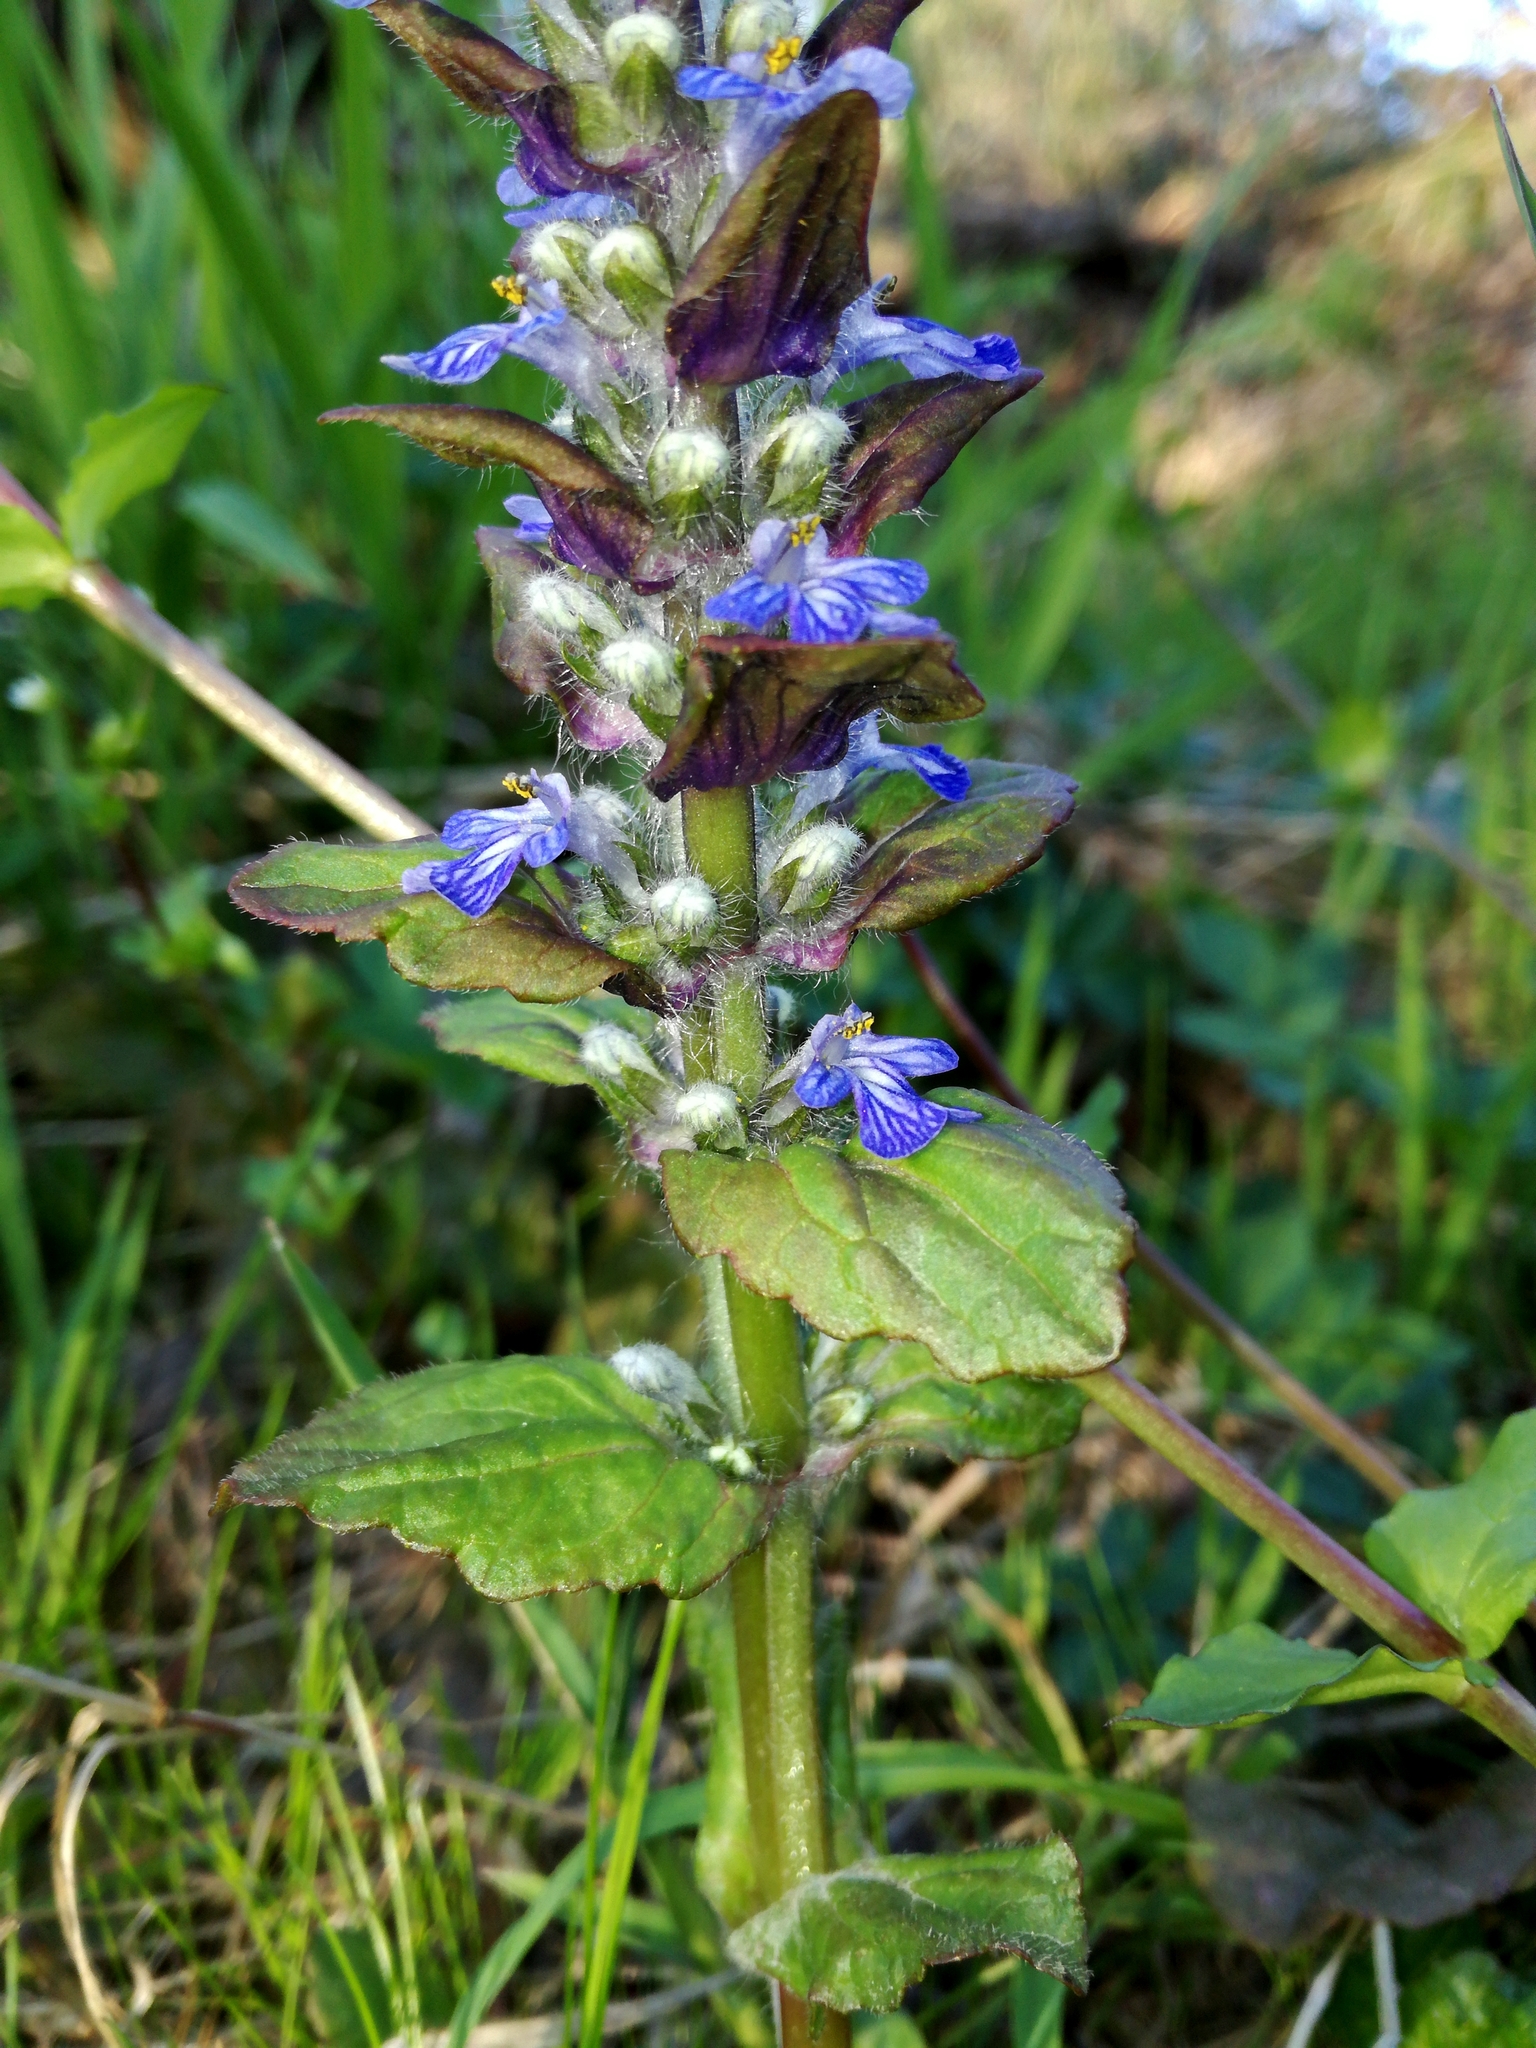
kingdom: Plantae
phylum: Tracheophyta
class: Magnoliopsida
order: Lamiales
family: Lamiaceae
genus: Ajuga
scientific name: Ajuga reptans
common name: Bugle
